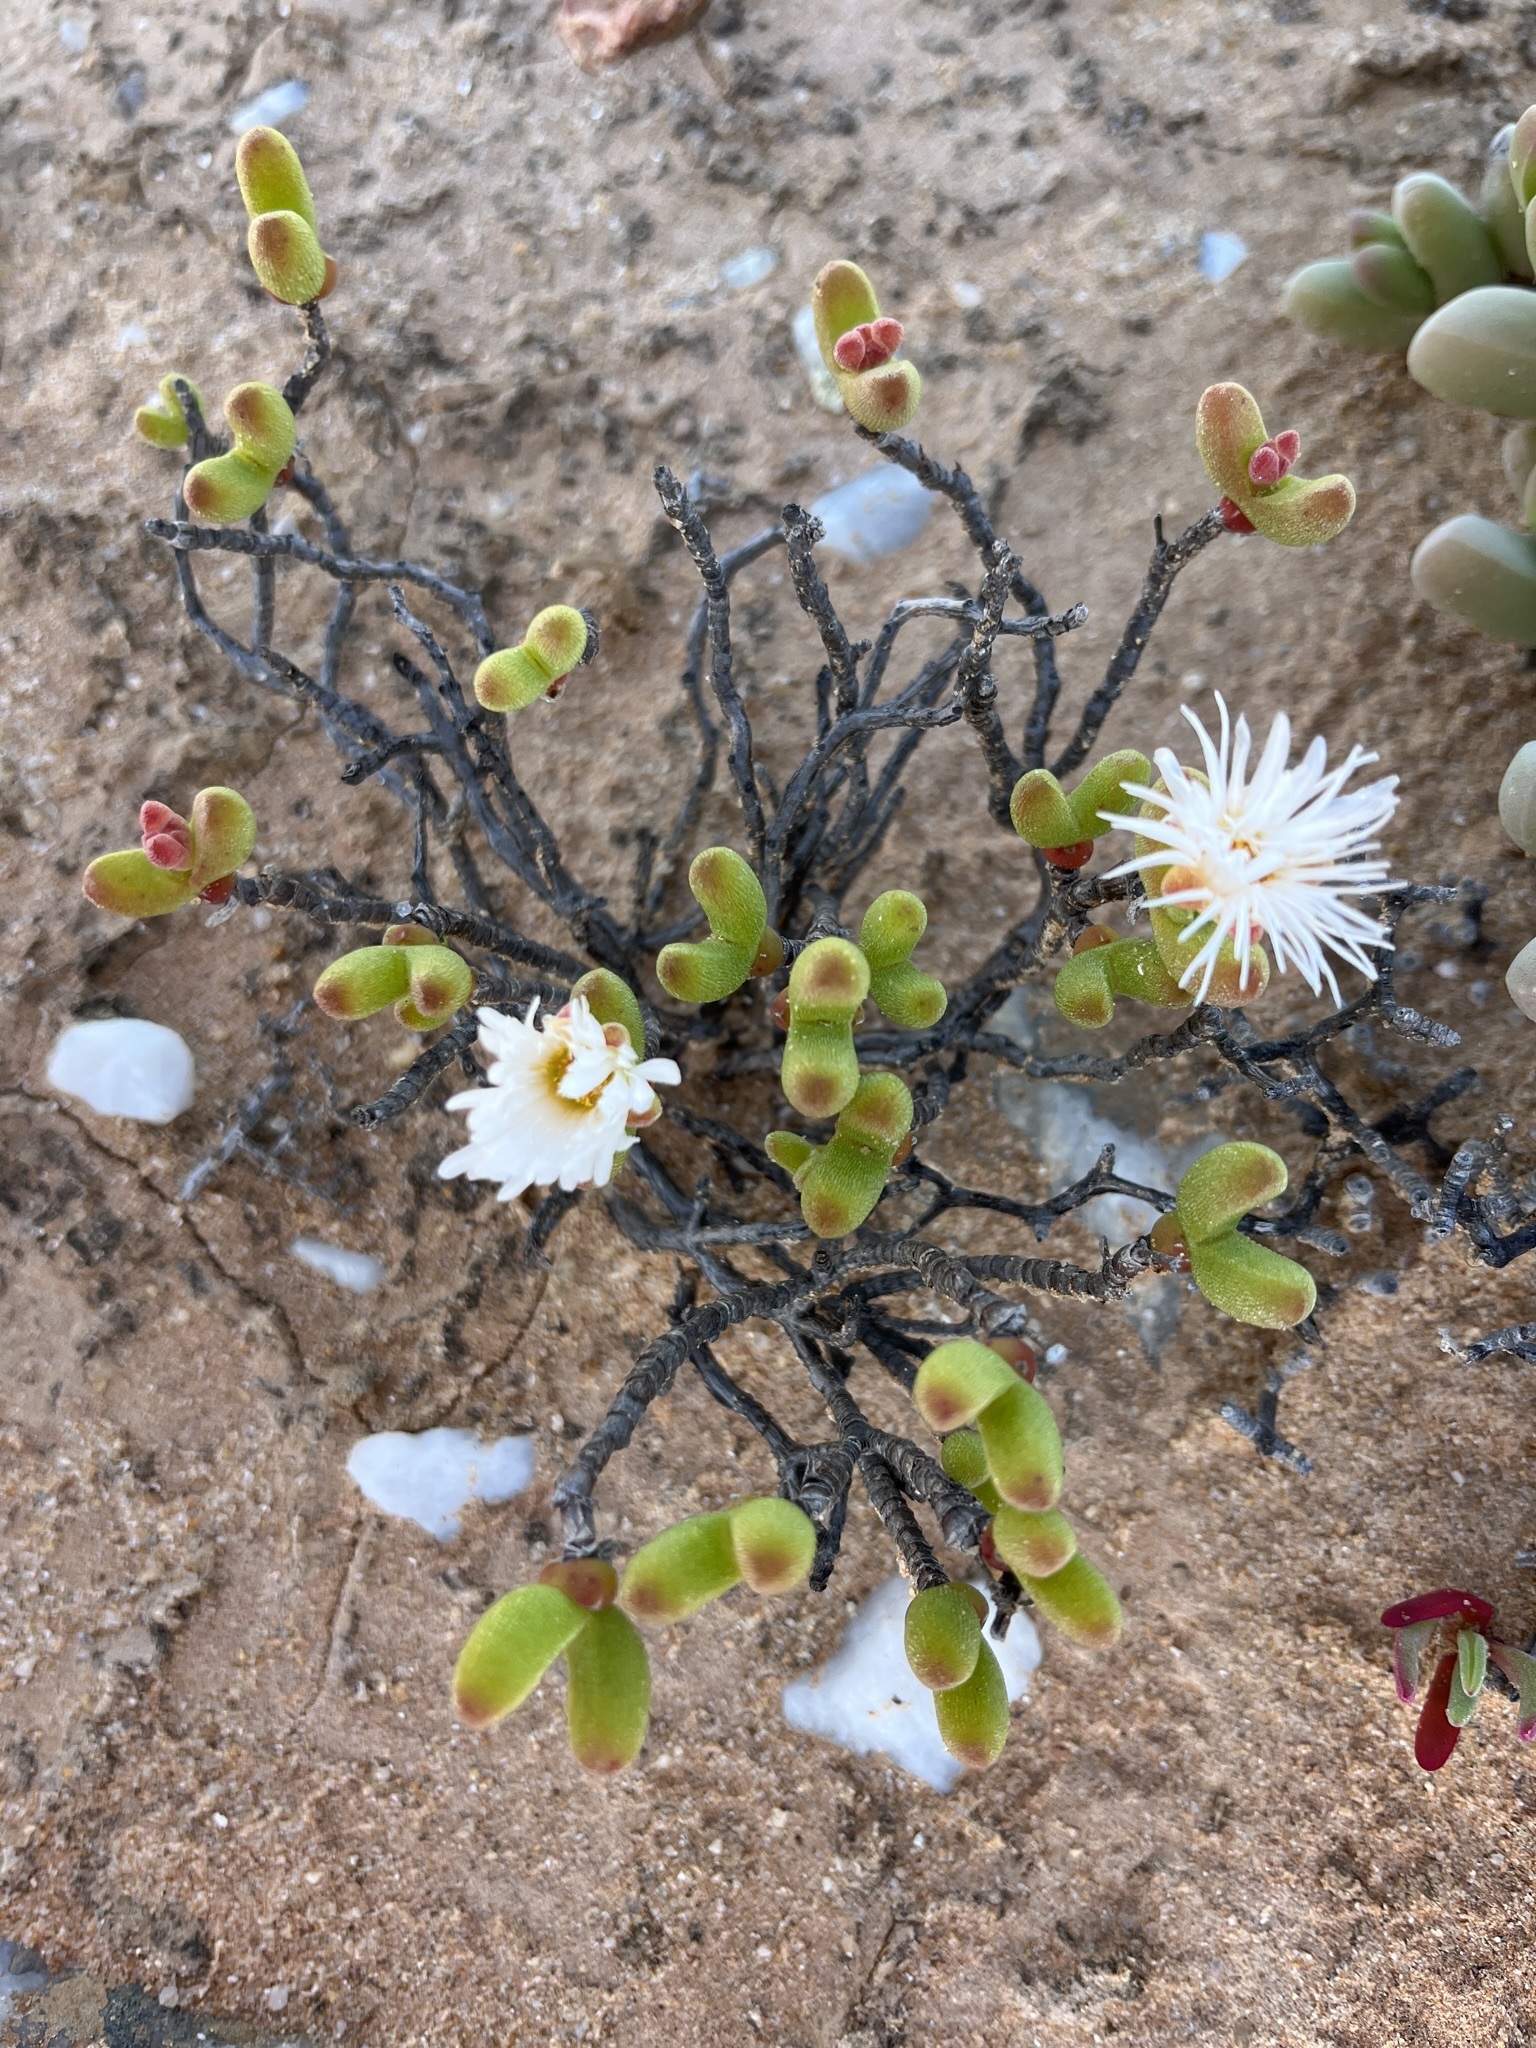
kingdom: Plantae
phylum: Tracheophyta
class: Magnoliopsida
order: Caryophyllales
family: Aizoaceae
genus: Dicrocaulon
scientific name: Dicrocaulon ramulosum
